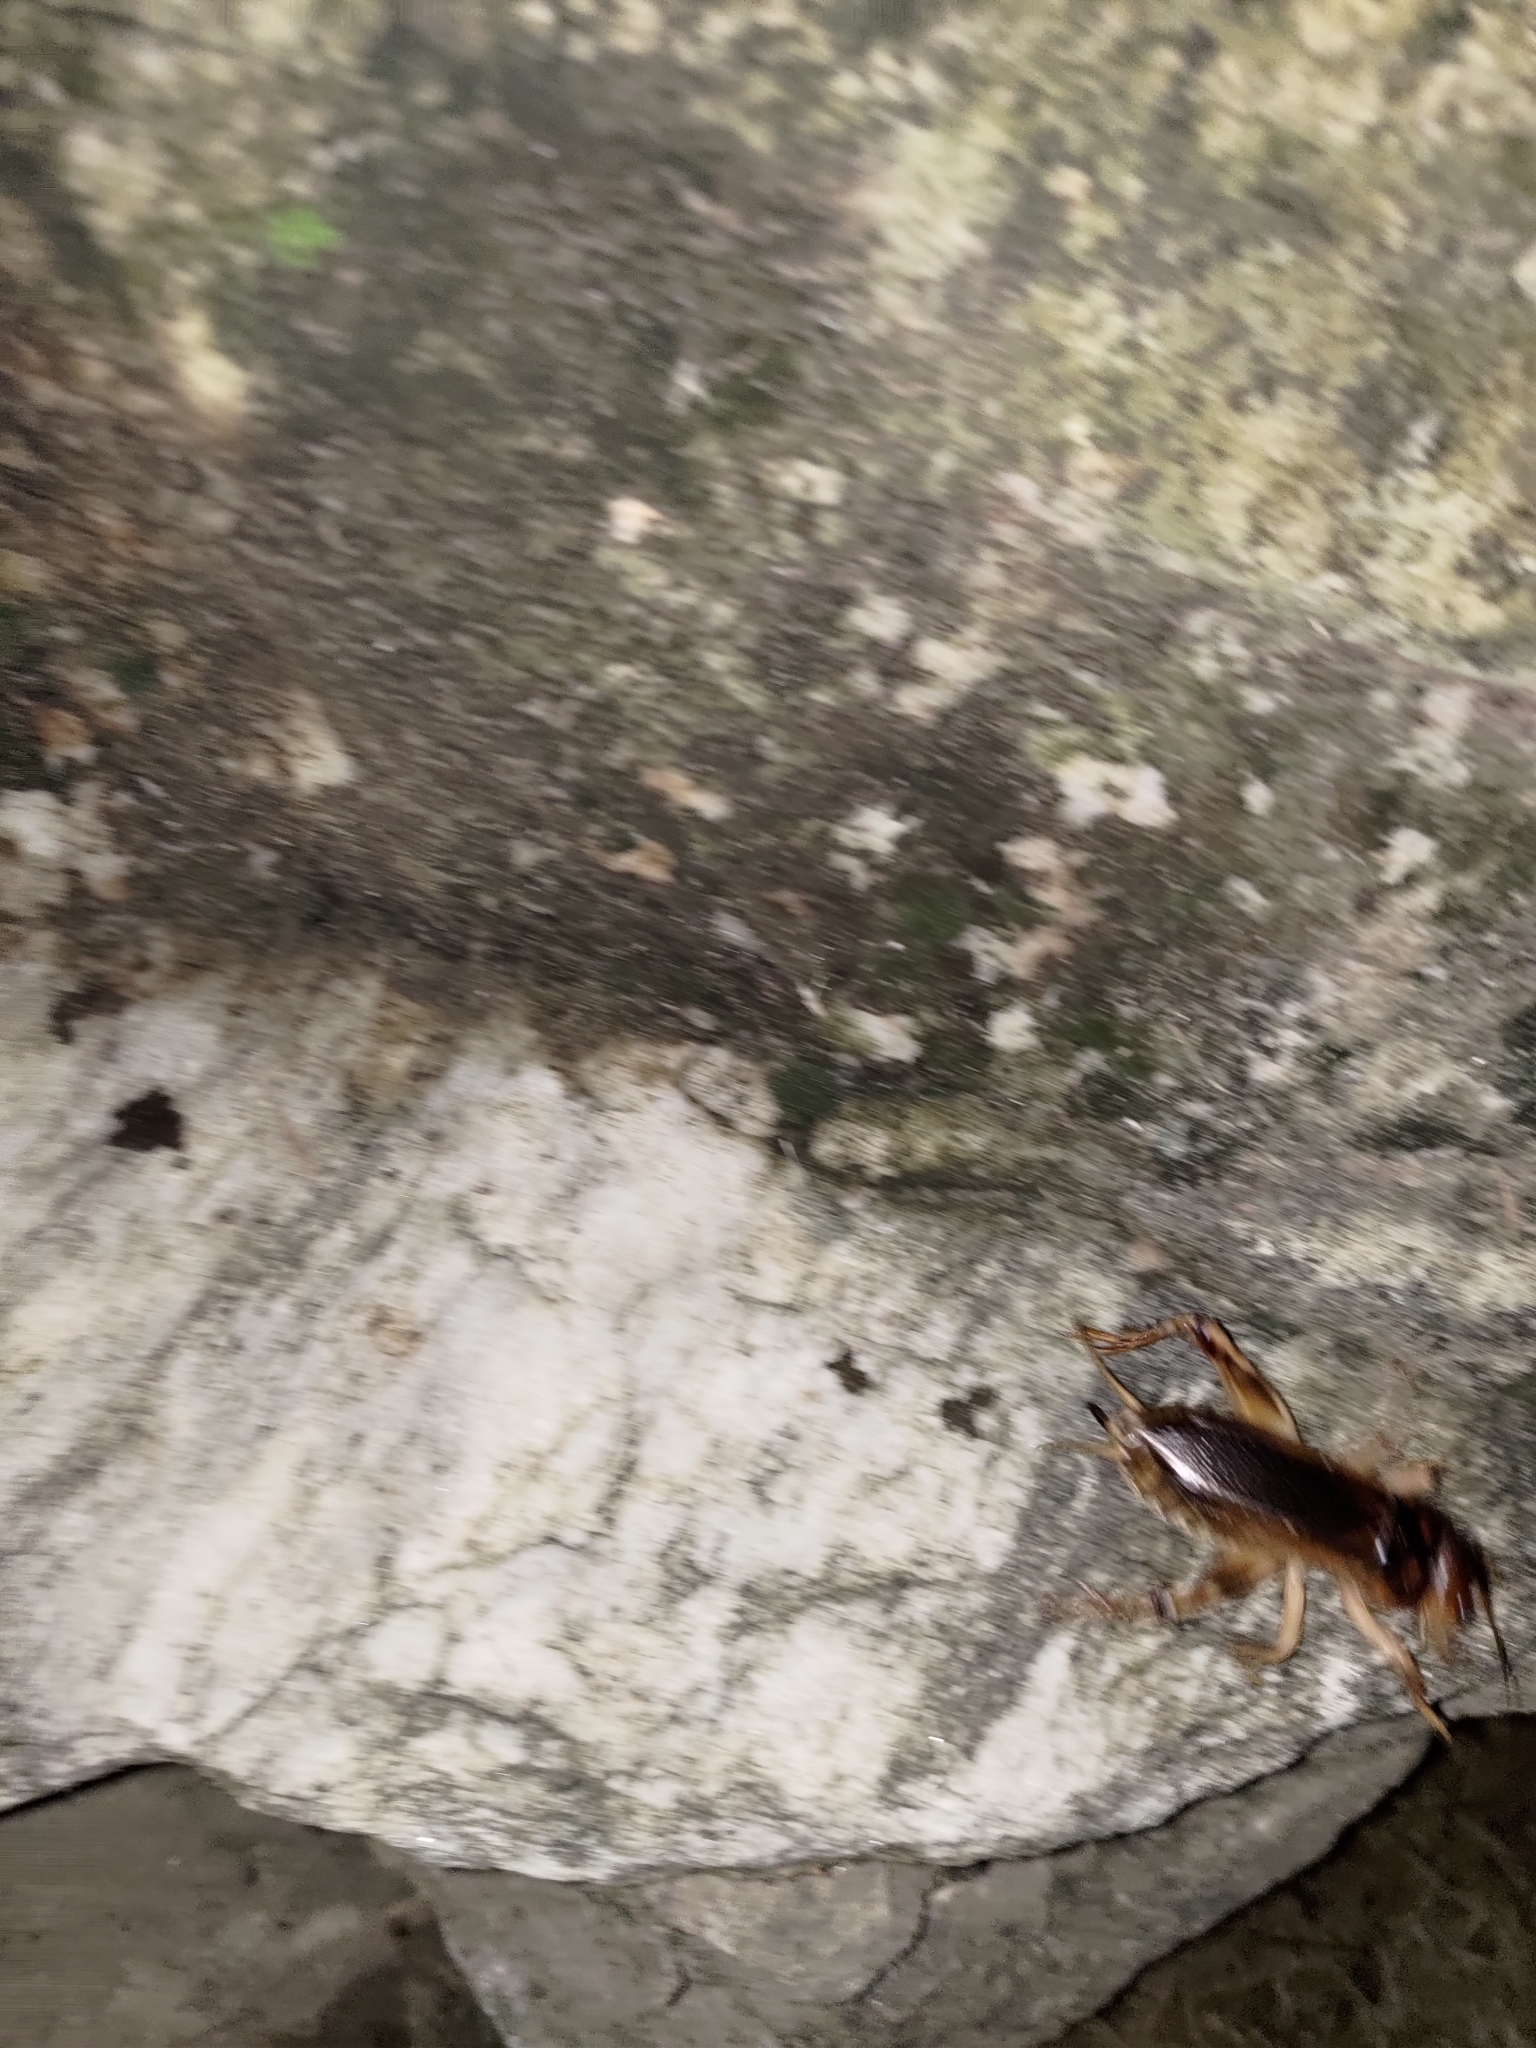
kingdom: Animalia
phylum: Arthropoda
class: Insecta
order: Orthoptera
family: Gryllidae
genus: Tarbinskiellus
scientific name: Tarbinskiellus portentosus
